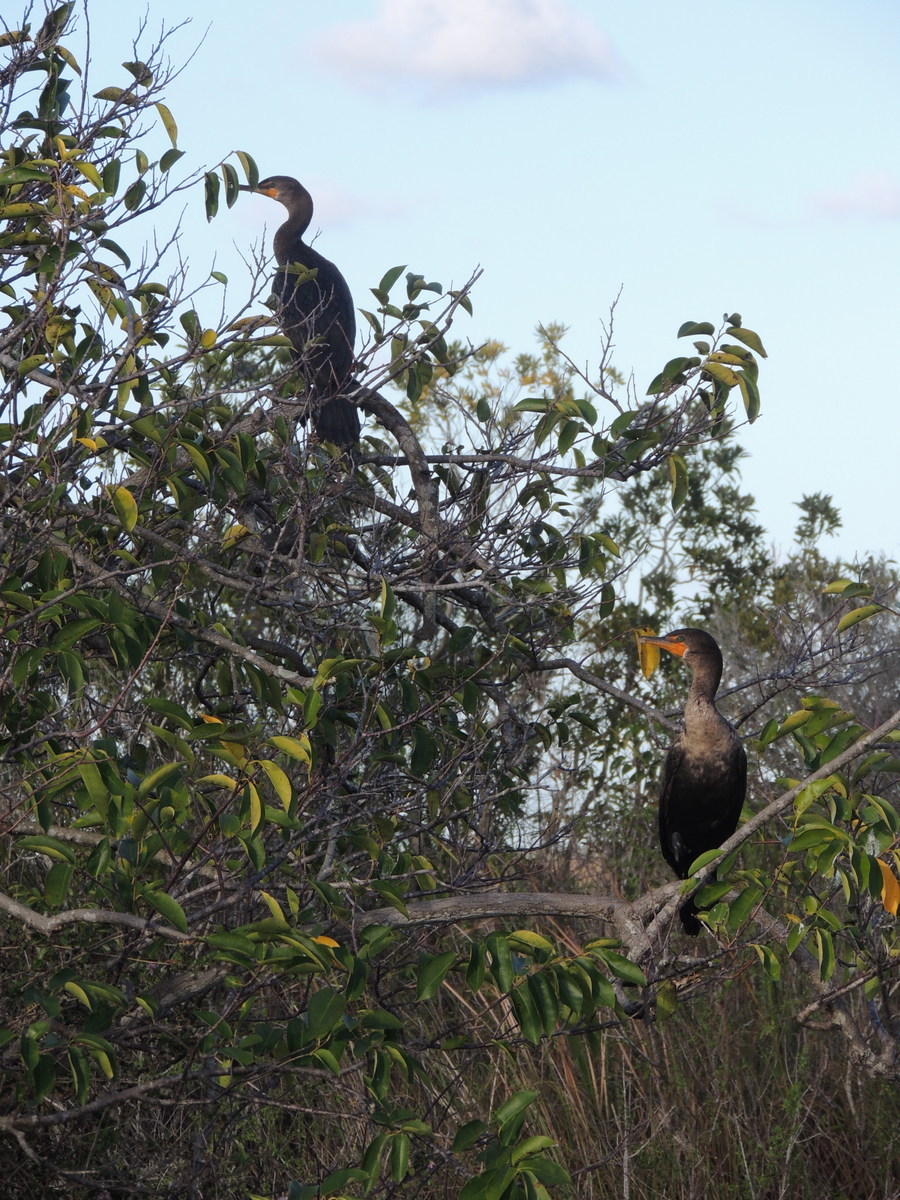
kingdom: Animalia
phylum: Chordata
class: Aves
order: Suliformes
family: Phalacrocoracidae
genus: Phalacrocorax
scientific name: Phalacrocorax auritus
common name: Double-crested cormorant
